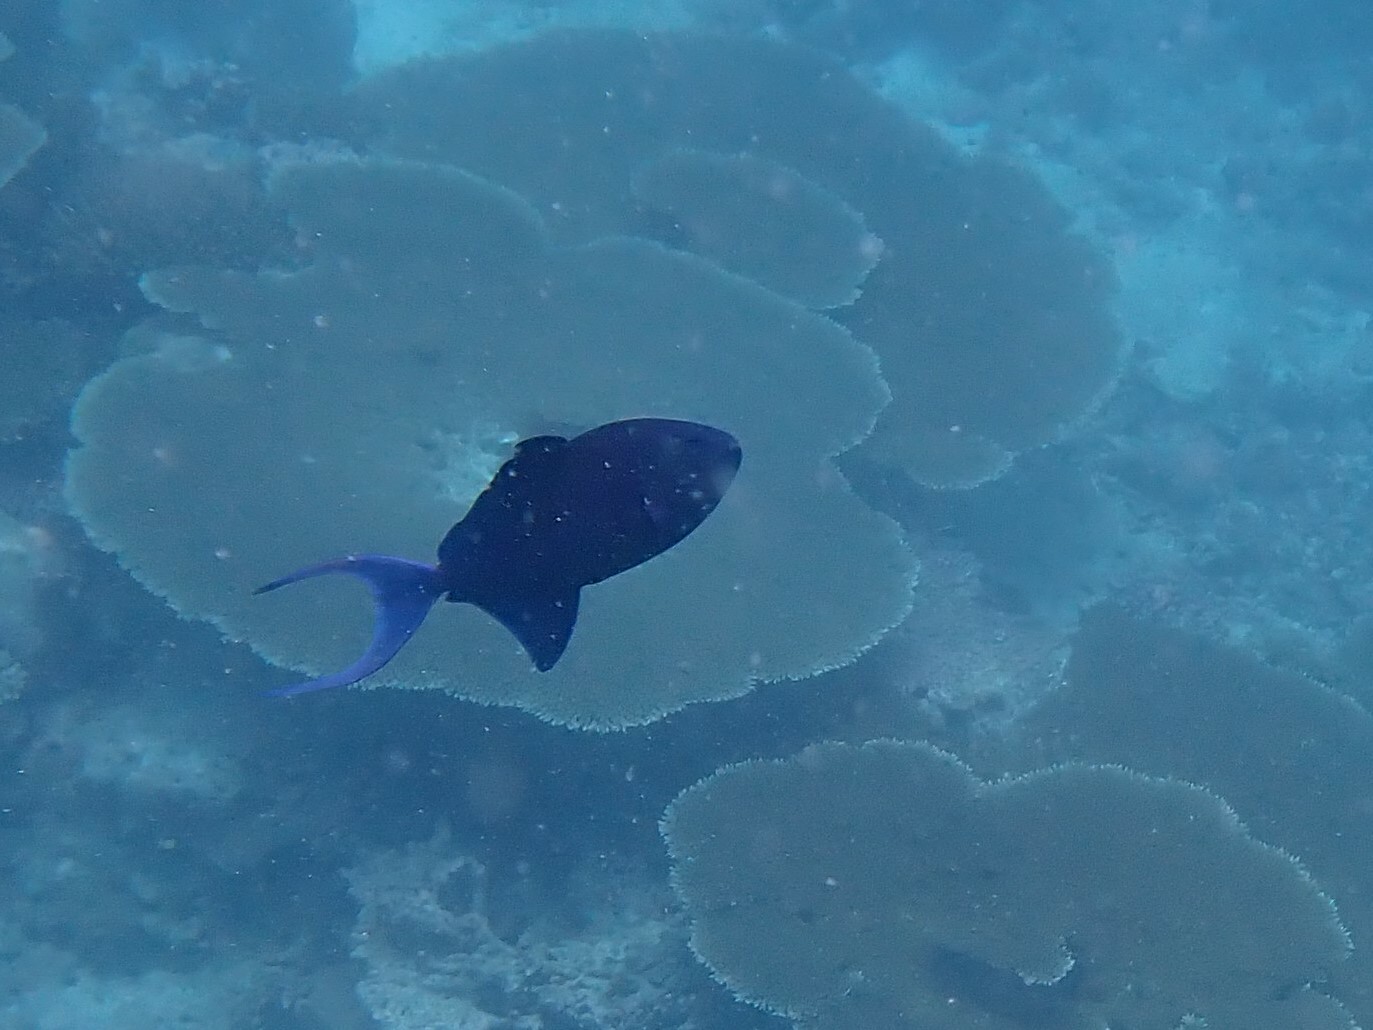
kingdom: Animalia
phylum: Chordata
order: Tetraodontiformes
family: Balistidae
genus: Odonus
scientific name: Odonus niger
